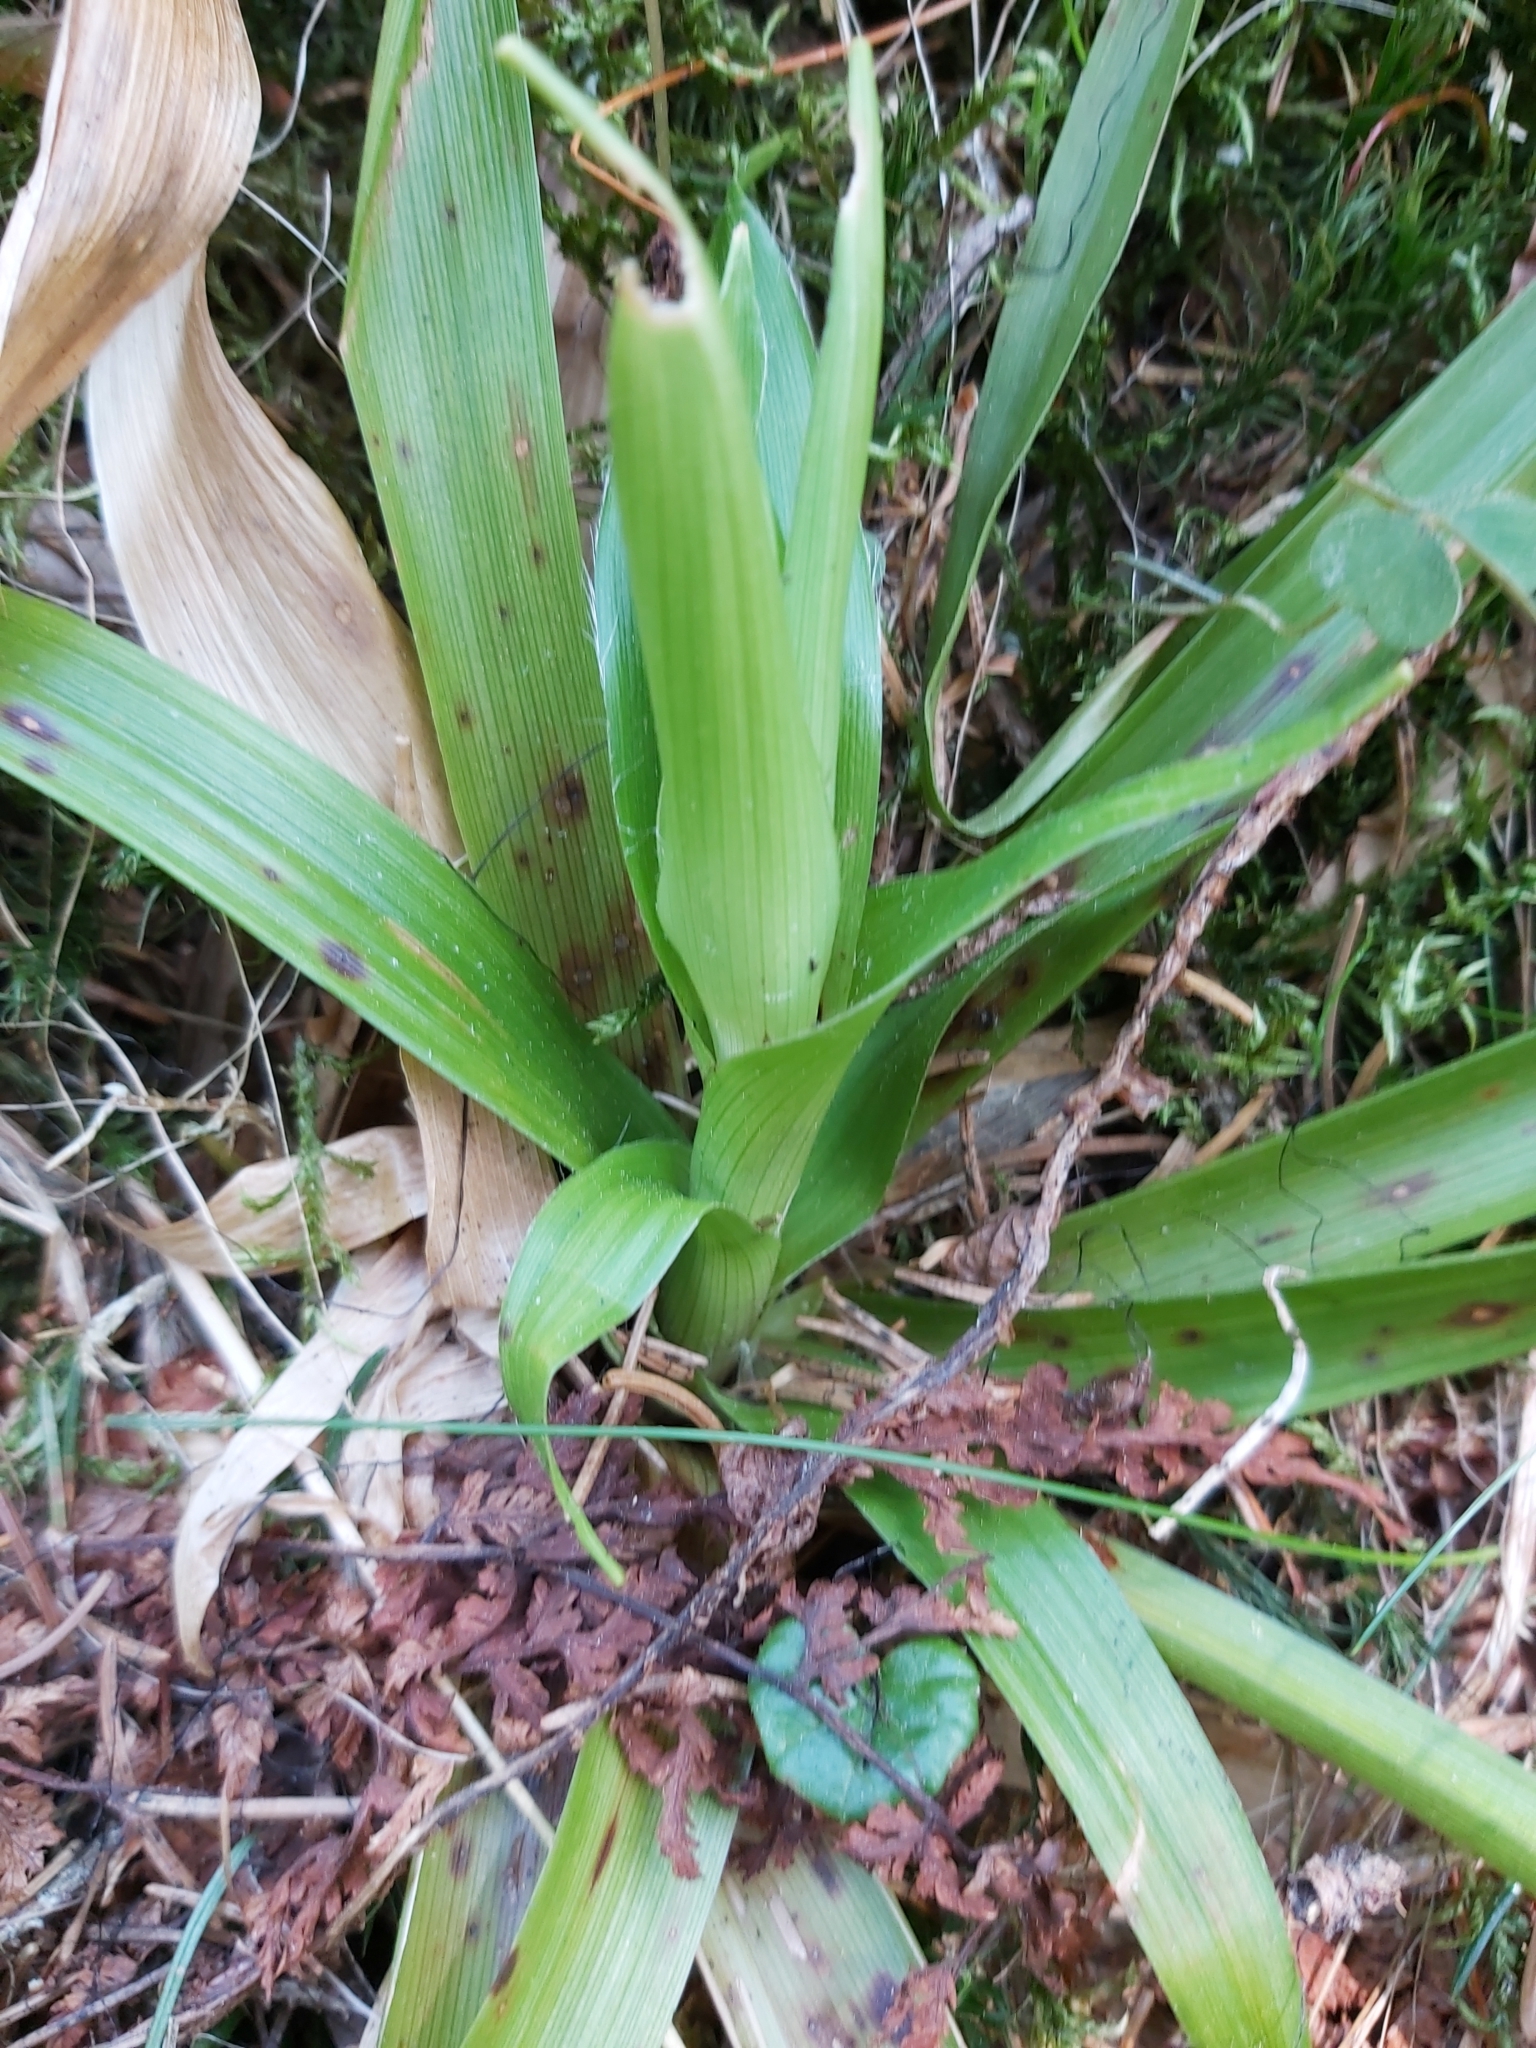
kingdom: Plantae
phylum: Tracheophyta
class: Liliopsida
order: Poales
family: Juncaceae
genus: Luzula
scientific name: Luzula sylvatica
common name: Great wood-rush
